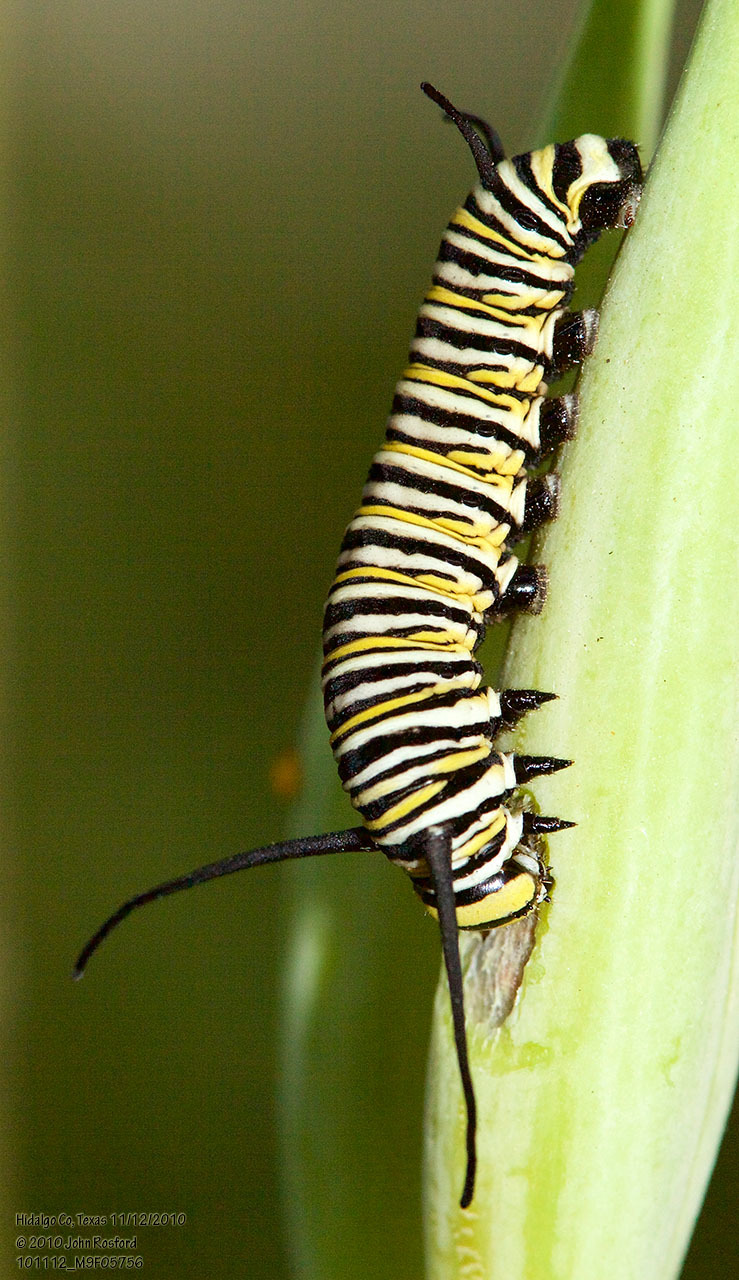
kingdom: Animalia
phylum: Arthropoda
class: Insecta
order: Lepidoptera
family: Nymphalidae
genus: Danaus
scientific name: Danaus plexippus
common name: Monarch
